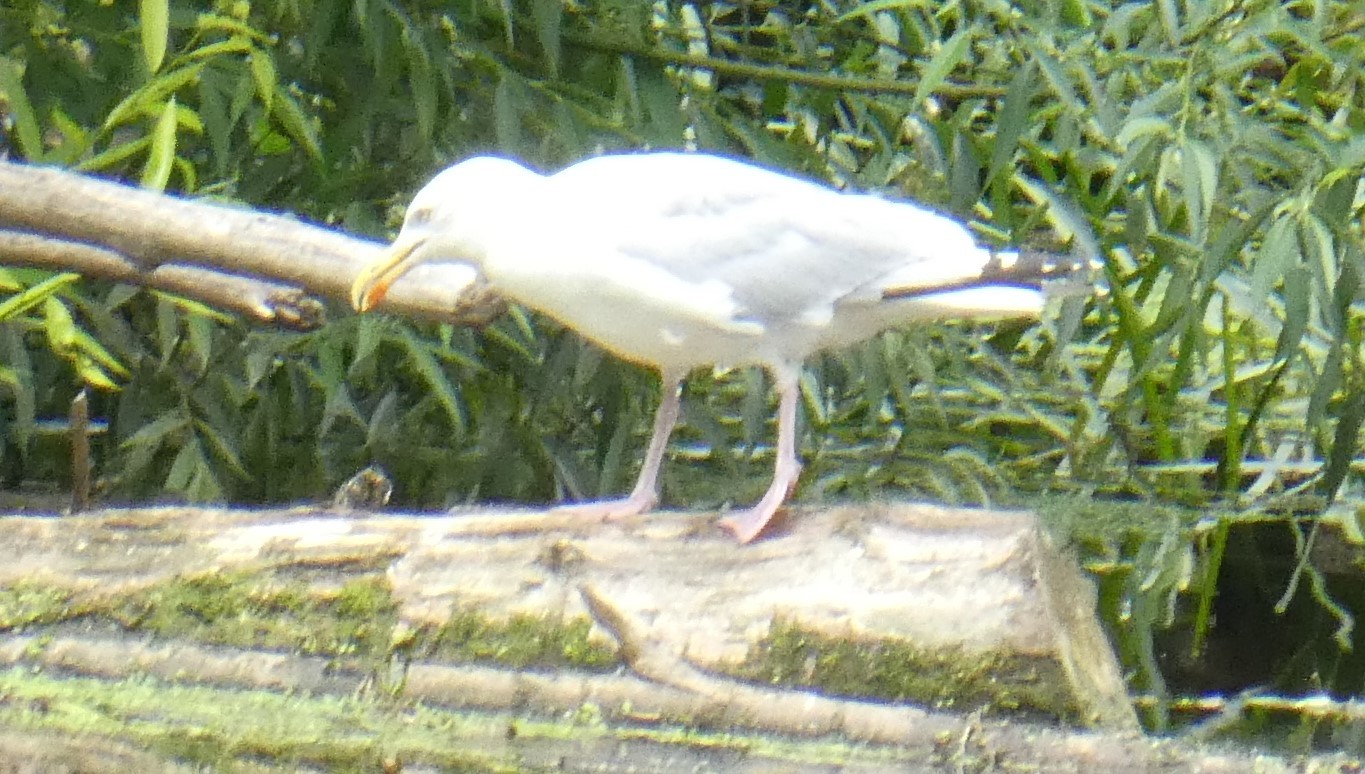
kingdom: Animalia
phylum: Chordata
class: Aves
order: Charadriiformes
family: Laridae
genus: Larus
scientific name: Larus argentatus
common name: Herring gull
